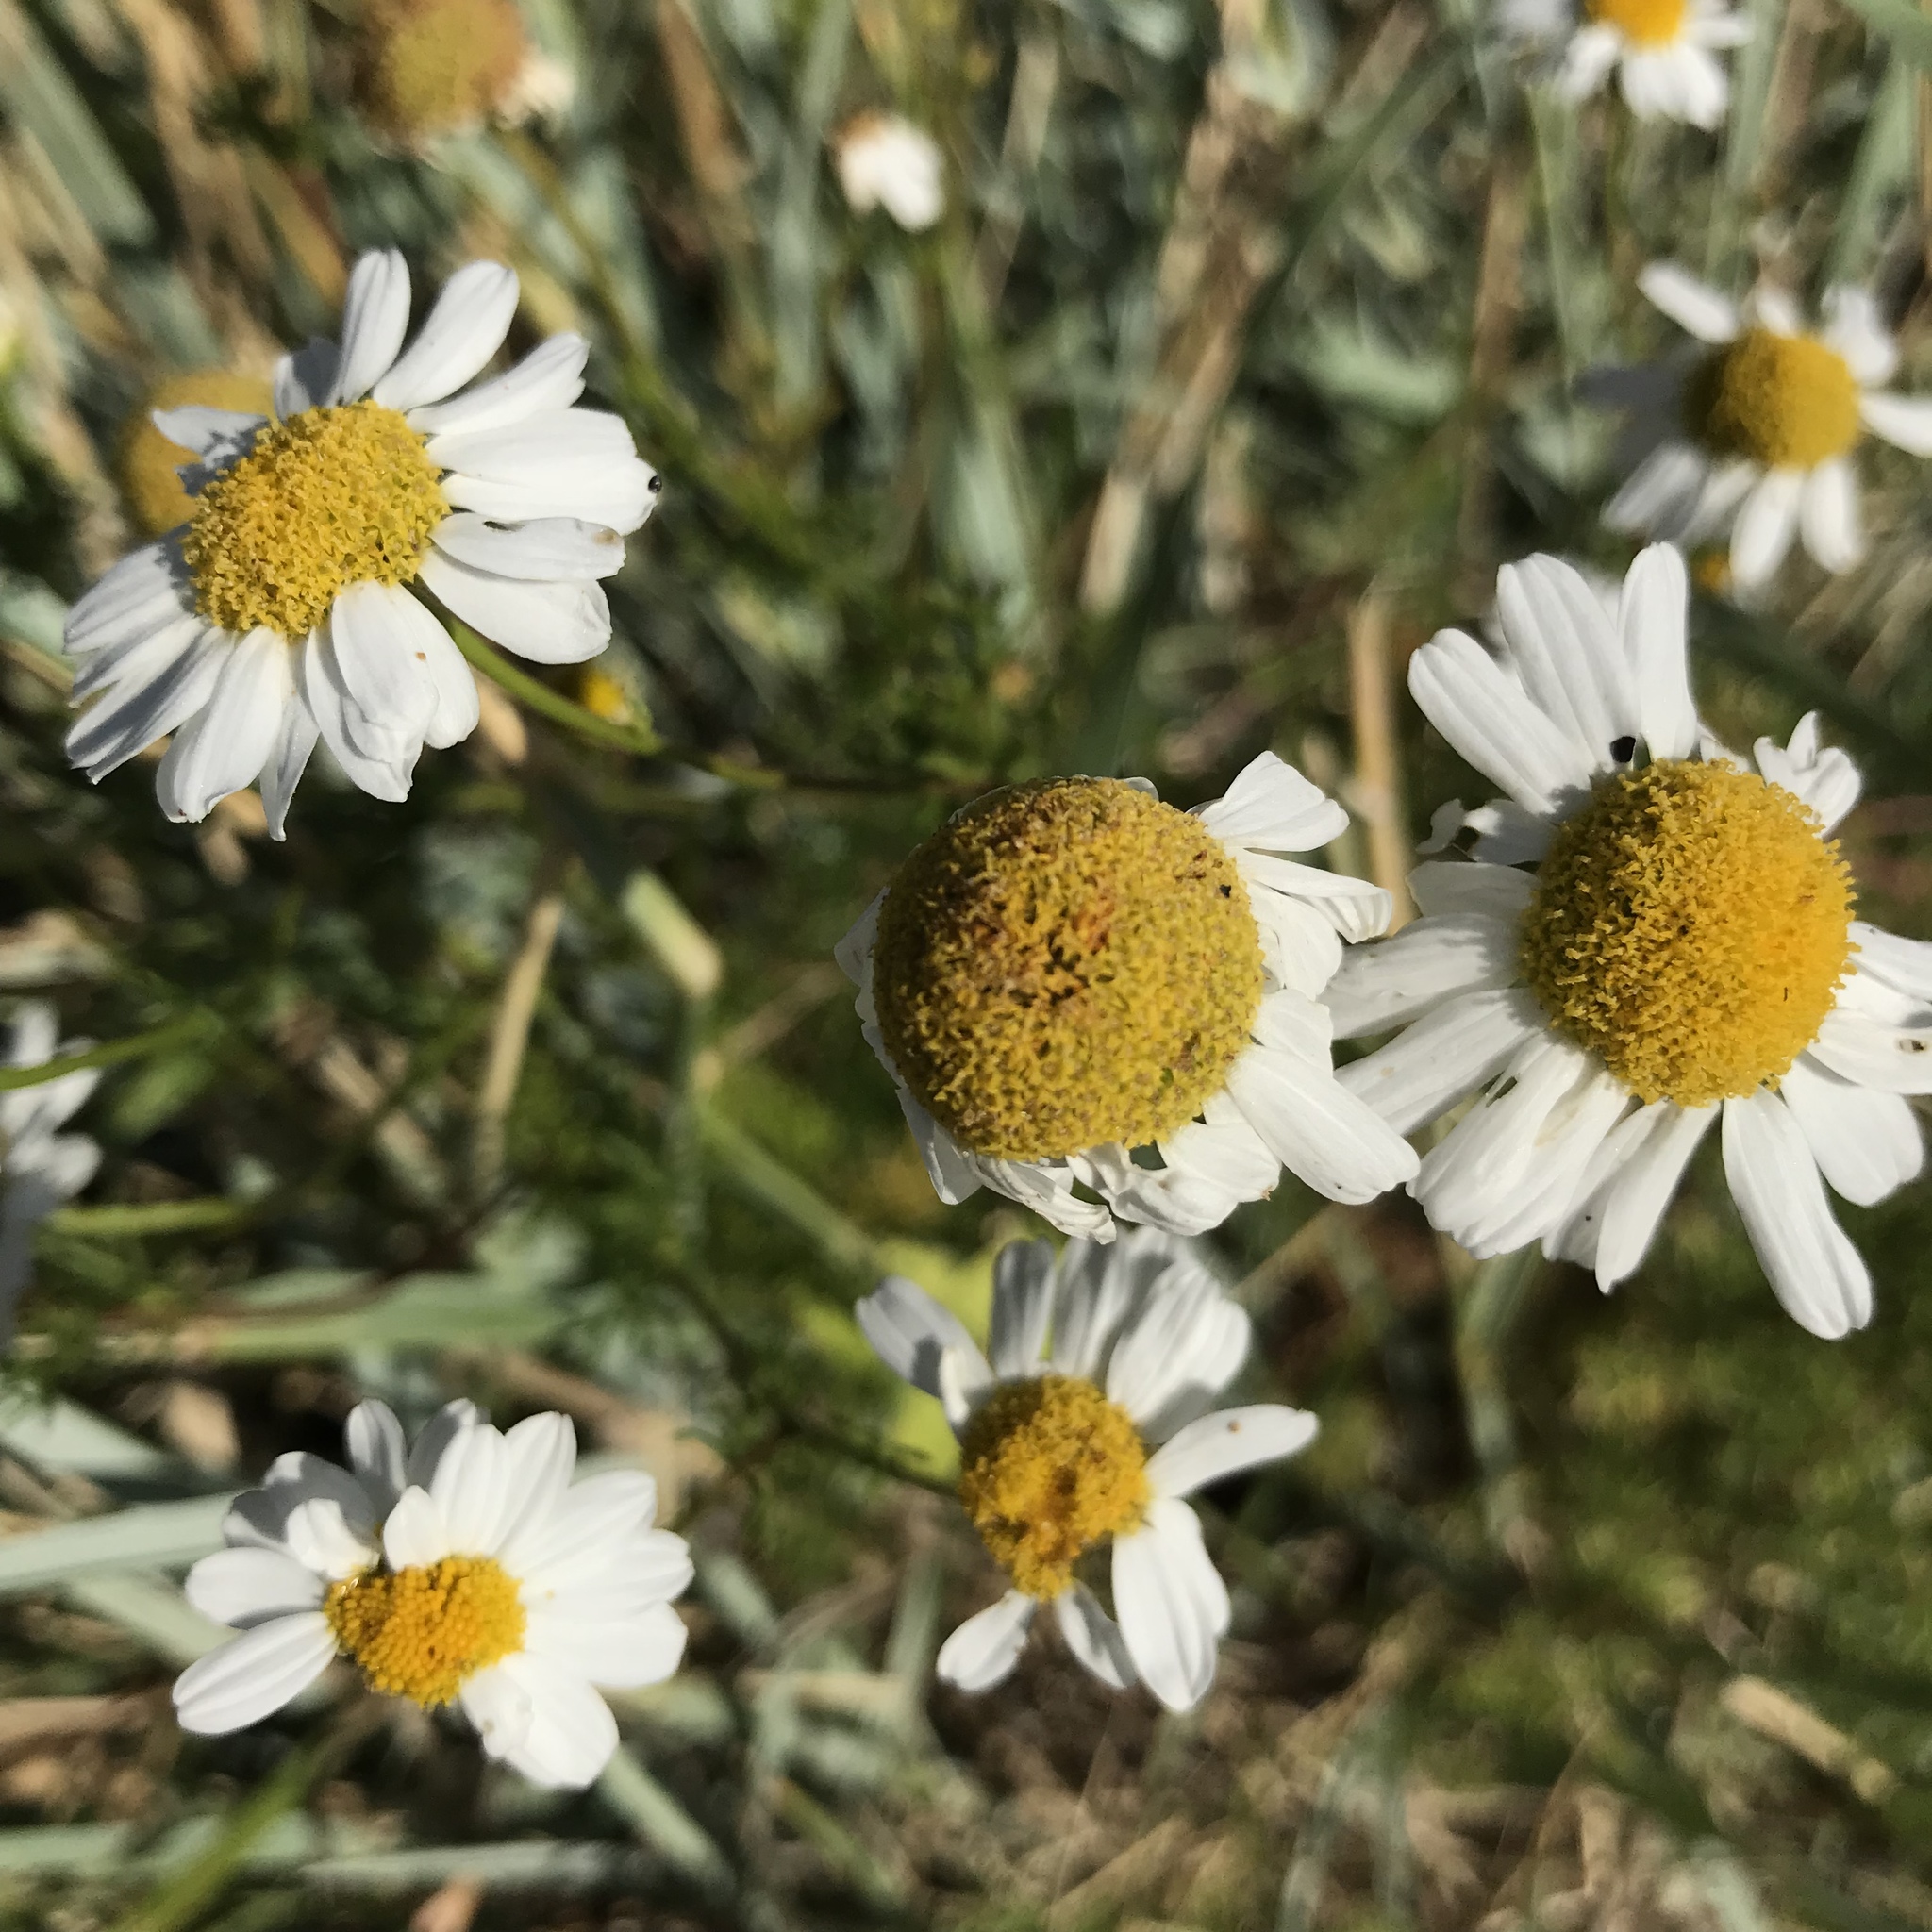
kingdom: Plantae
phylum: Tracheophyta
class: Magnoliopsida
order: Asterales
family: Asteraceae
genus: Tripleurospermum
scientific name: Tripleurospermum inodorum
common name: Scentless mayweed
